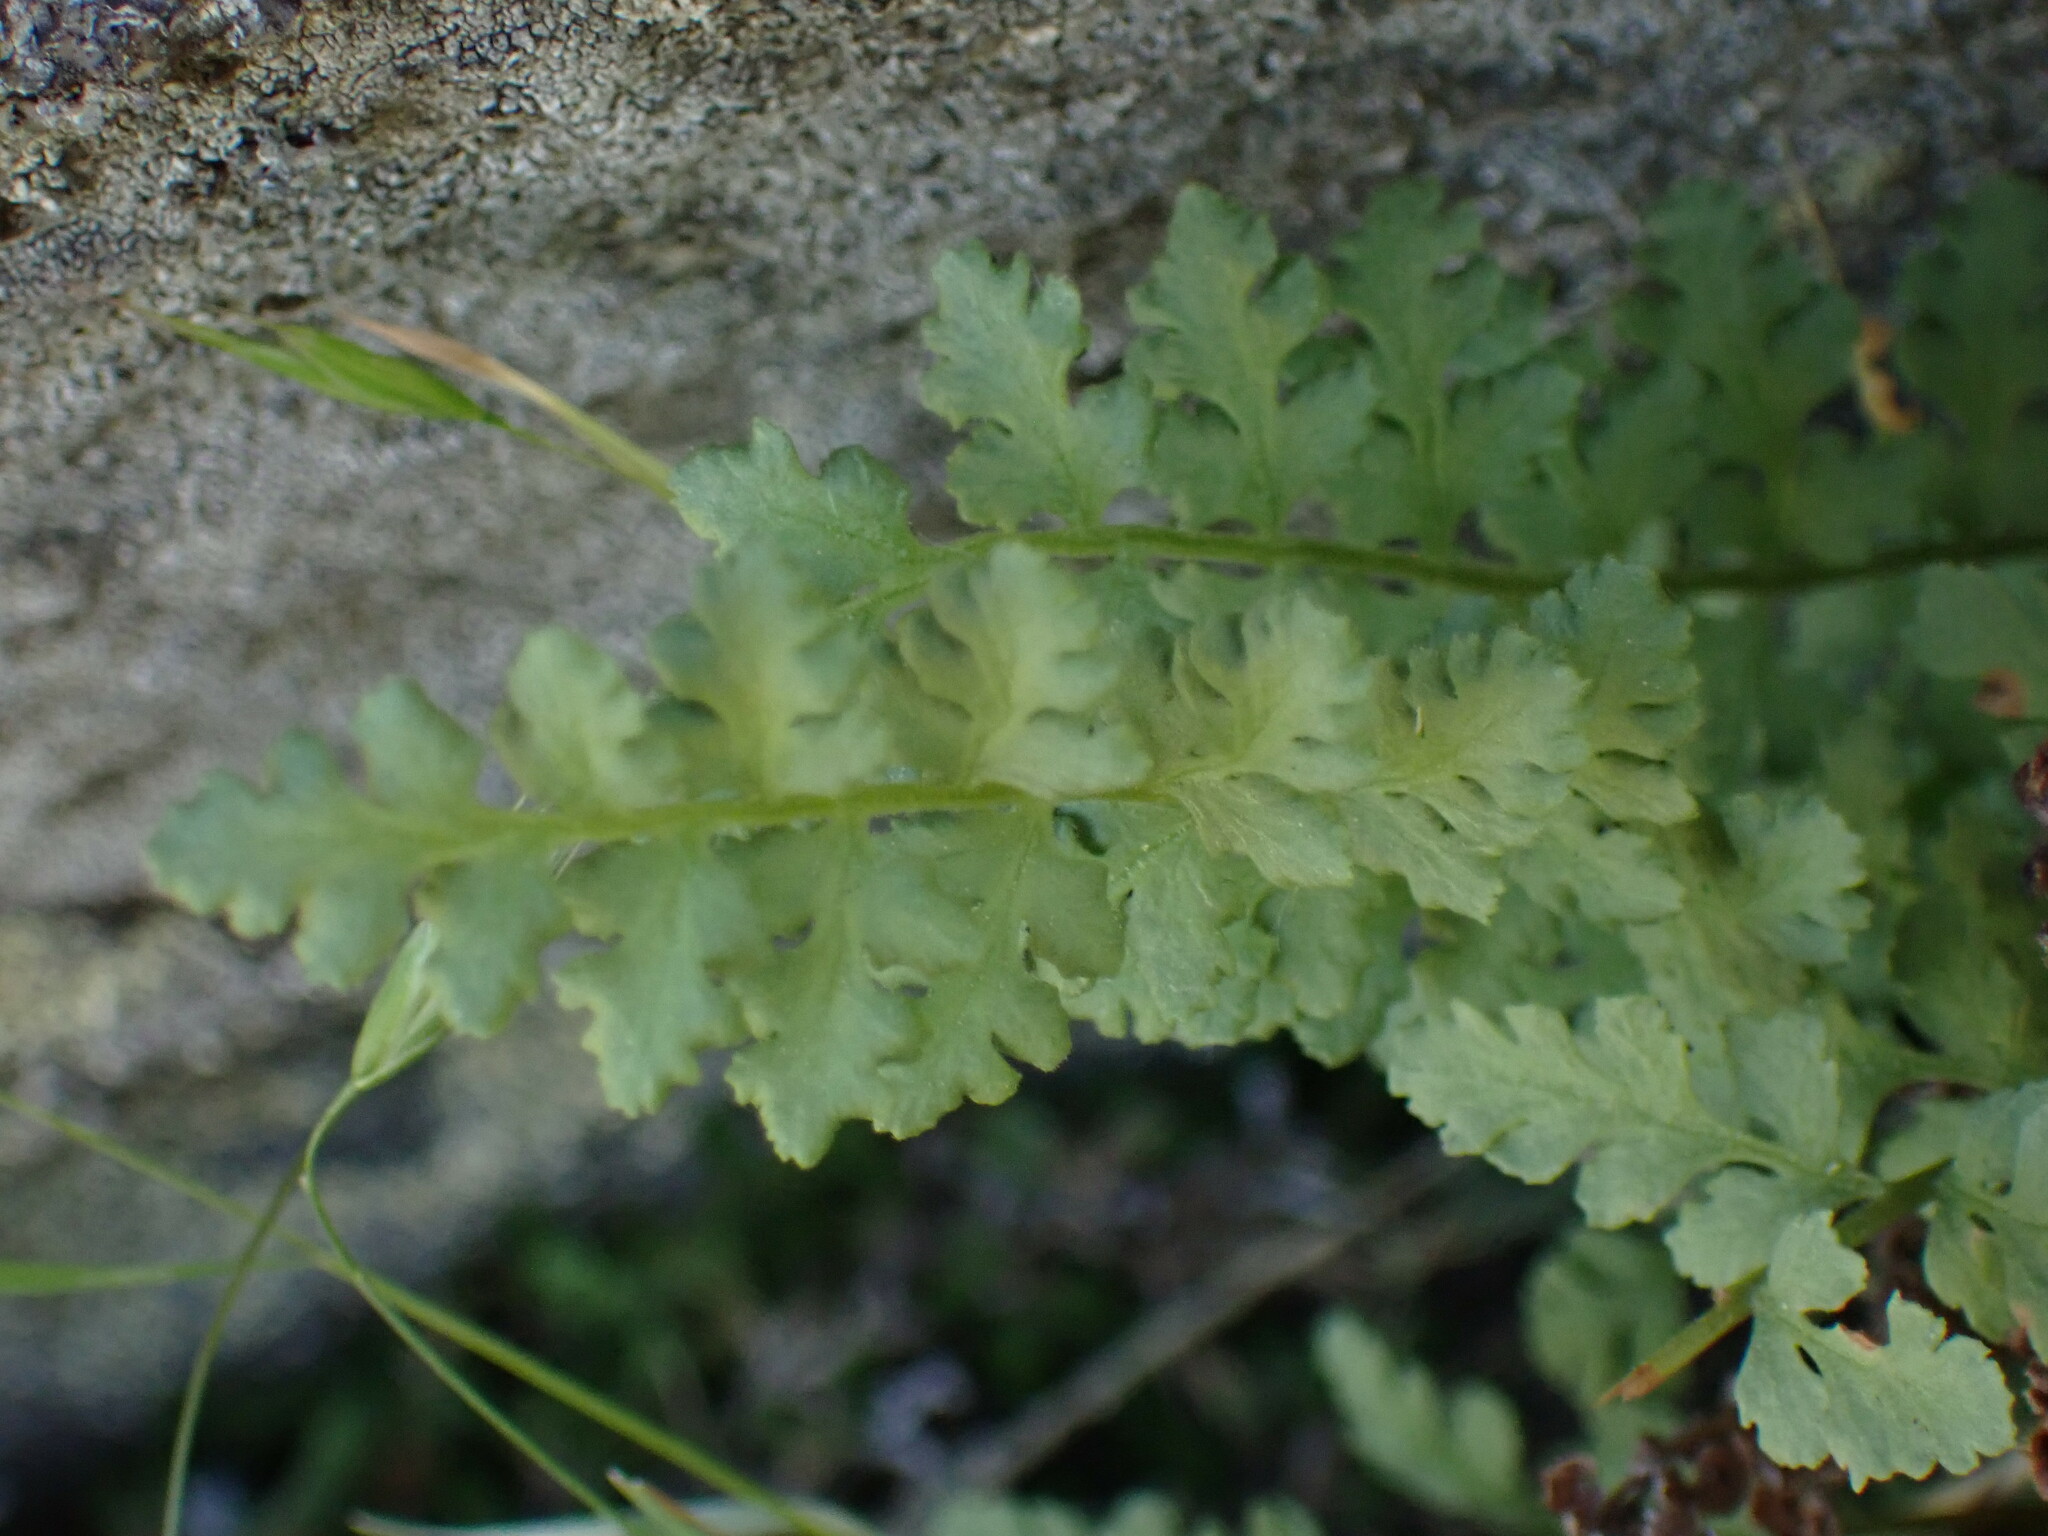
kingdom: Plantae
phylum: Tracheophyta
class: Polypodiopsida
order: Polypodiales
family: Woodsiaceae
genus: Physematium
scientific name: Physematium oreganum
